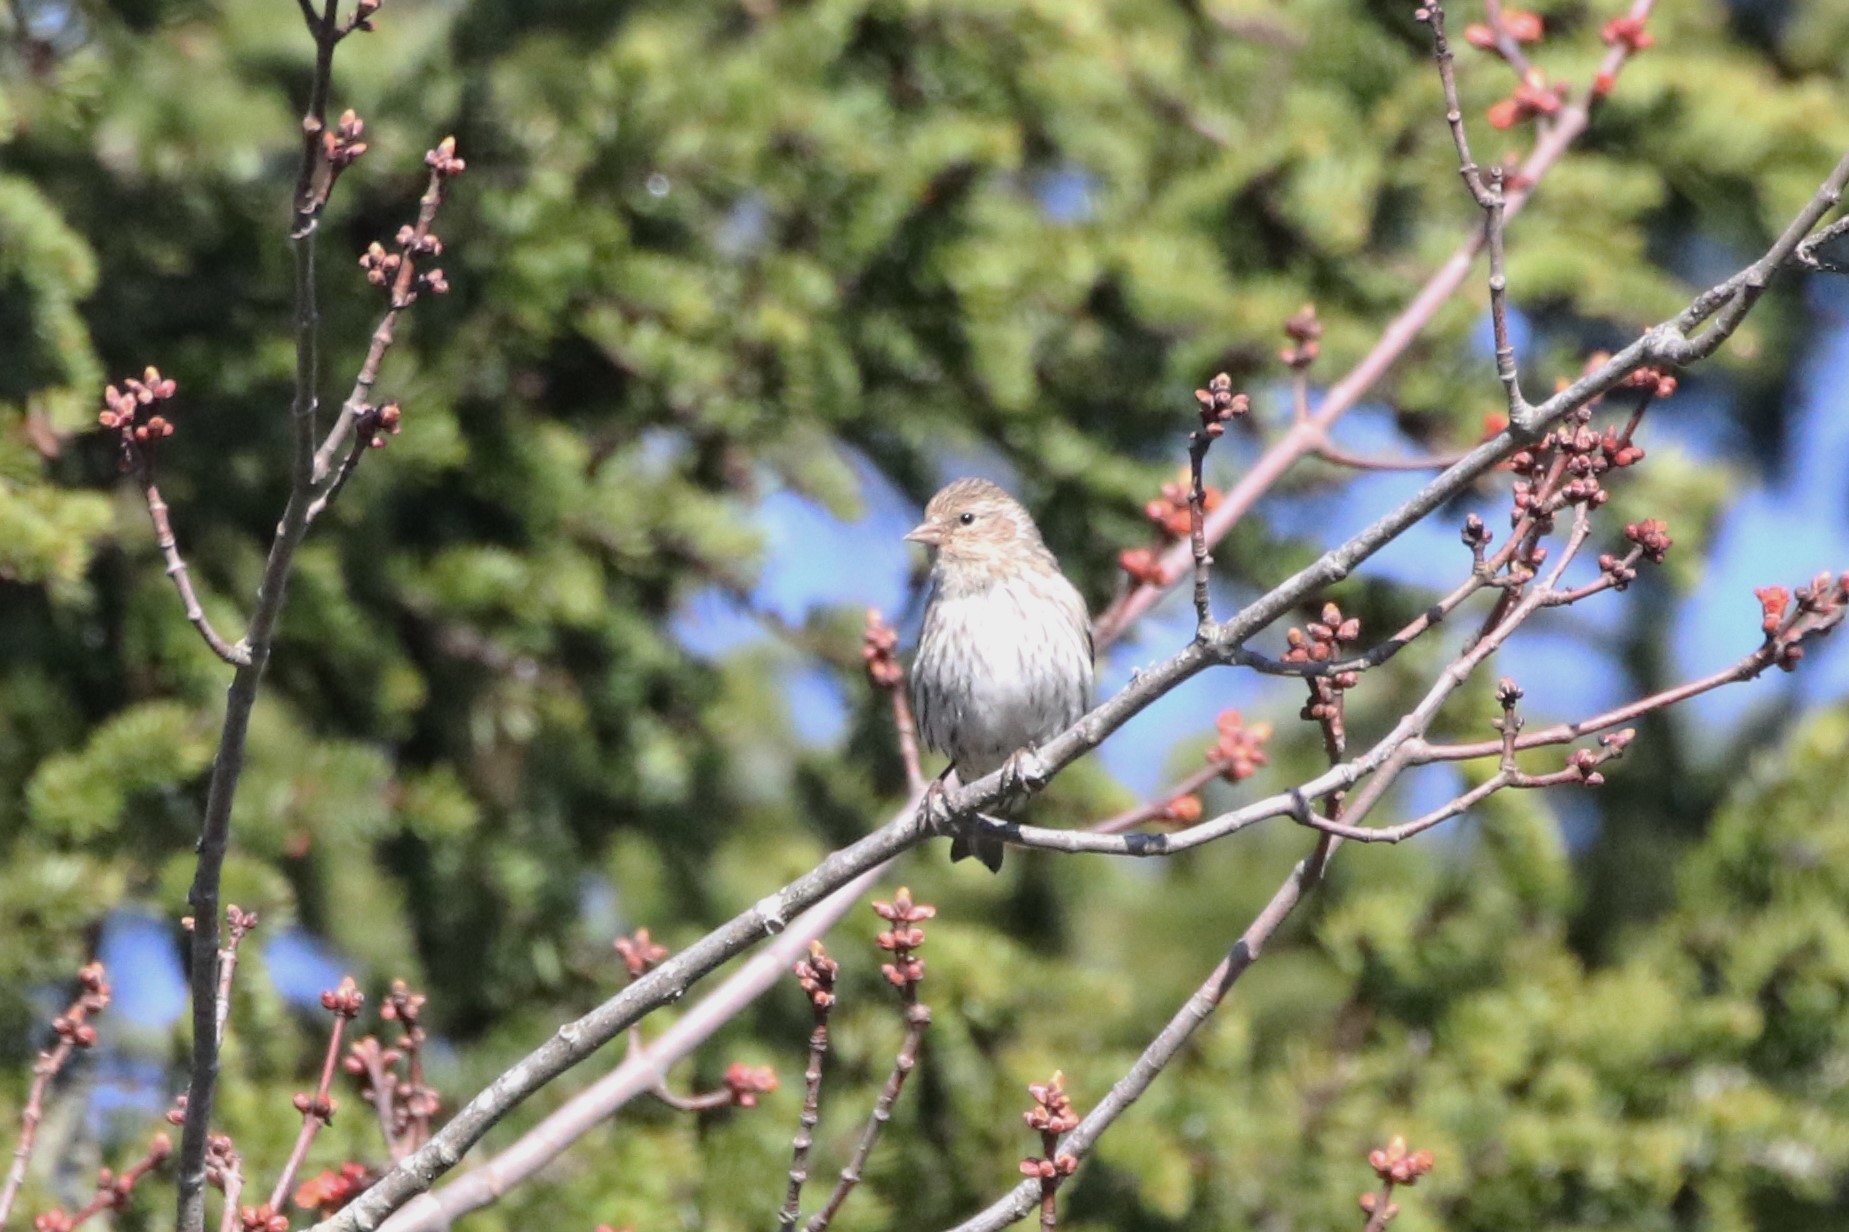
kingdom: Animalia
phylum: Chordata
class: Aves
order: Passeriformes
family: Fringillidae
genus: Spinus
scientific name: Spinus pinus
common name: Pine siskin
